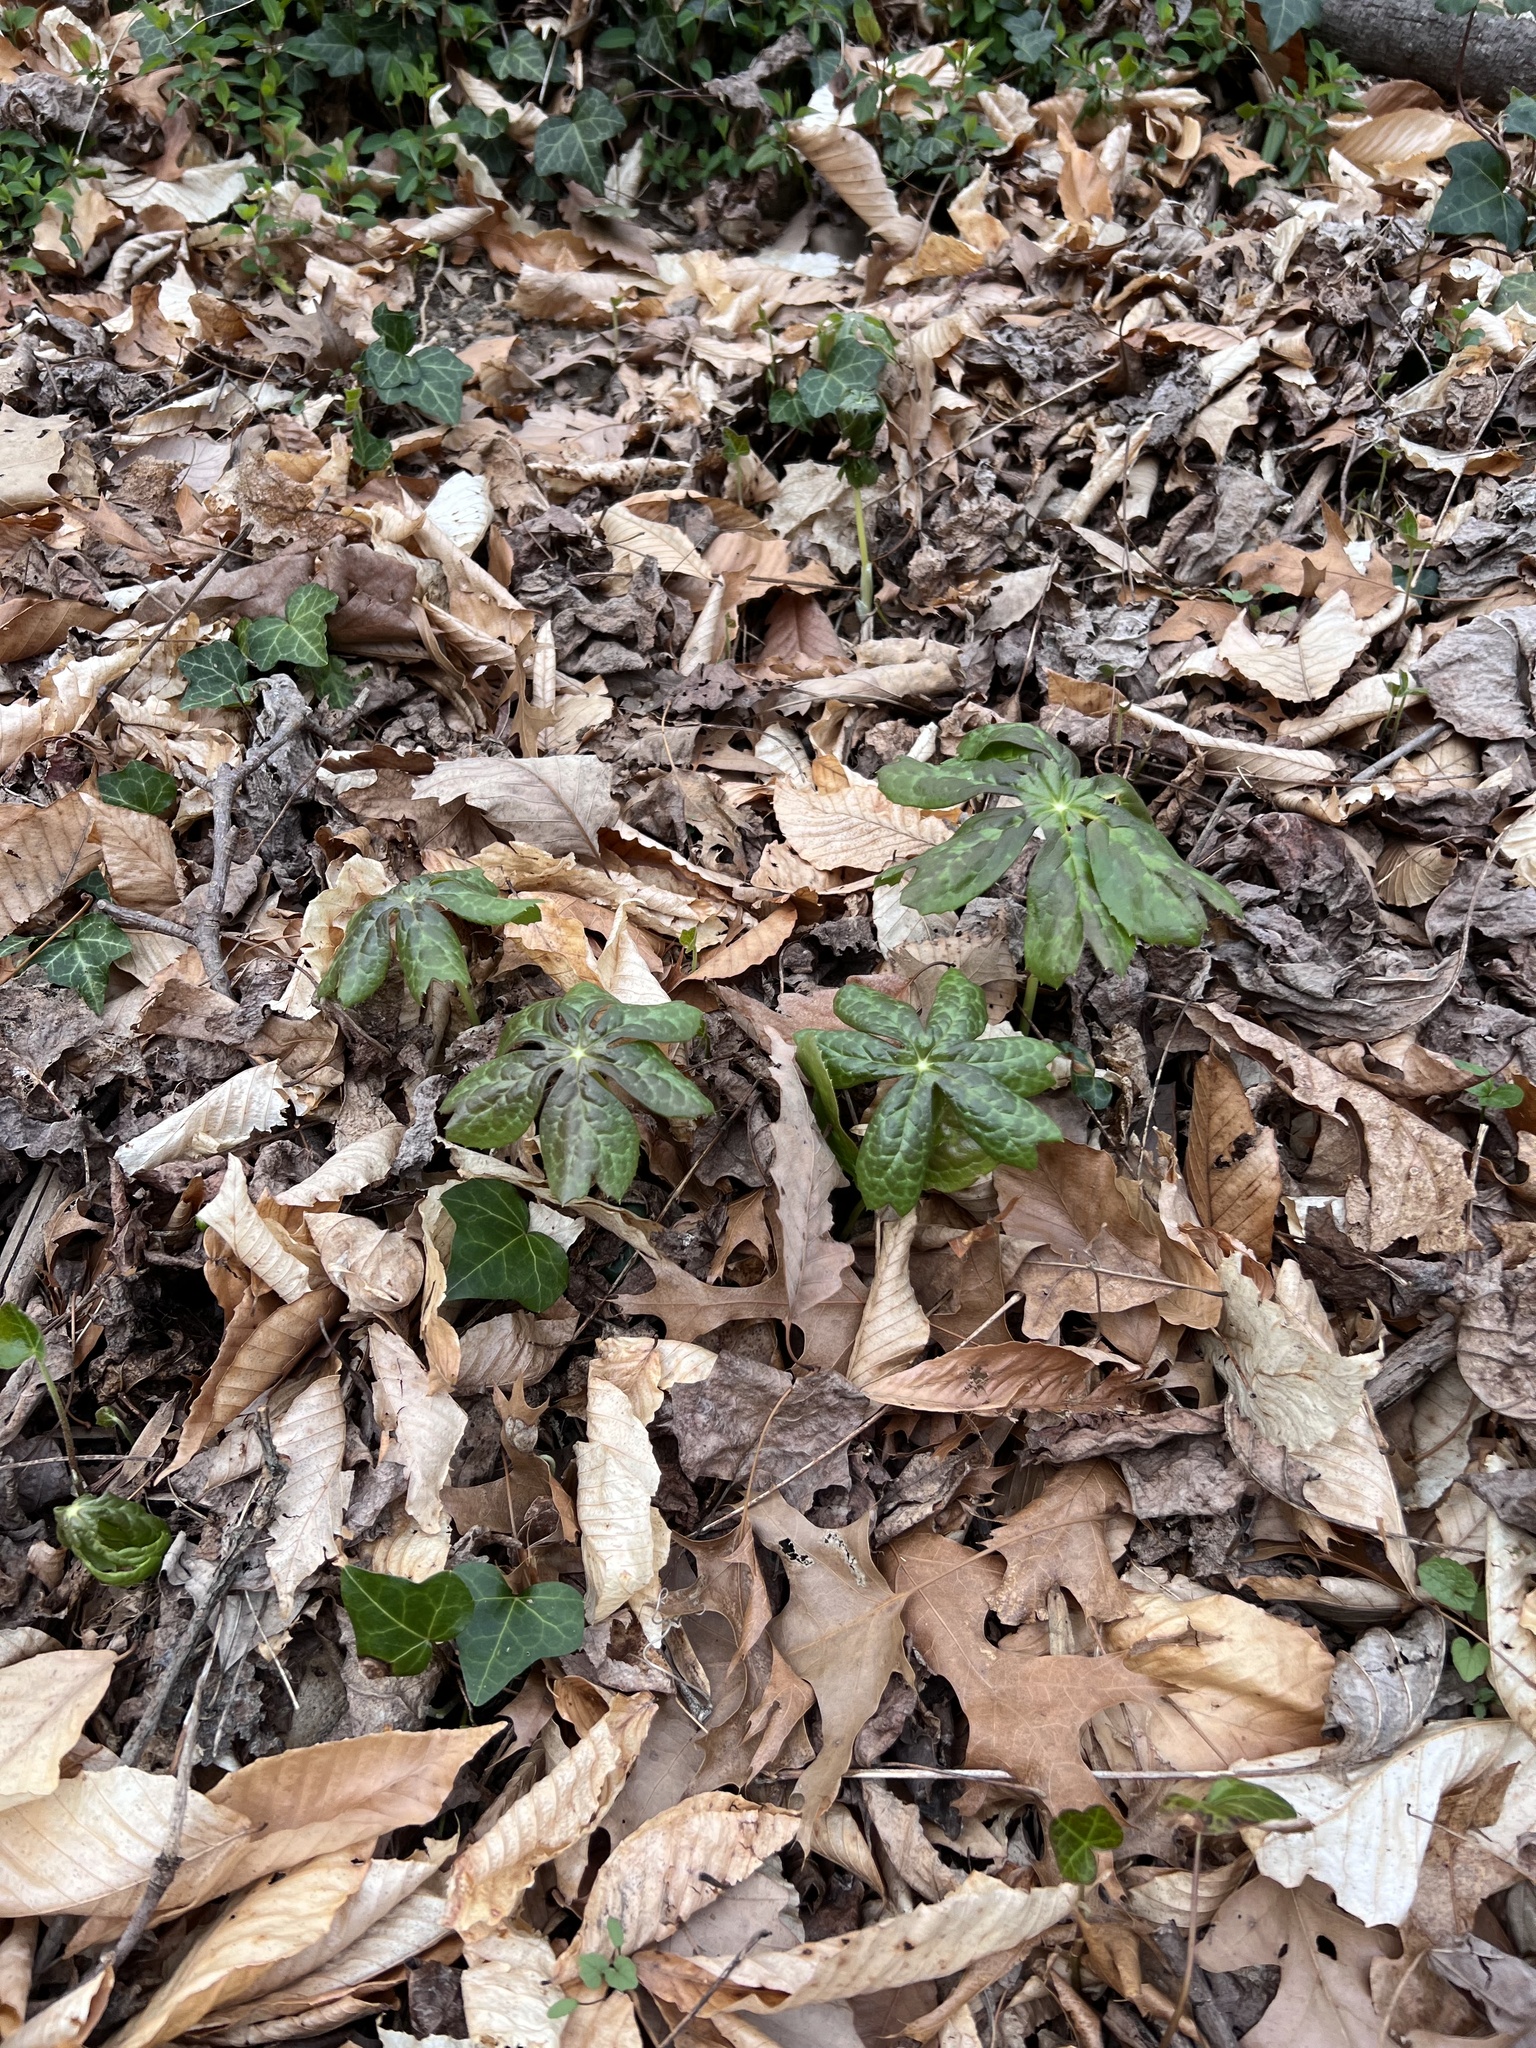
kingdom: Plantae
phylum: Tracheophyta
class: Magnoliopsida
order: Ranunculales
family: Berberidaceae
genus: Podophyllum
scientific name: Podophyllum peltatum
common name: Wild mandrake
